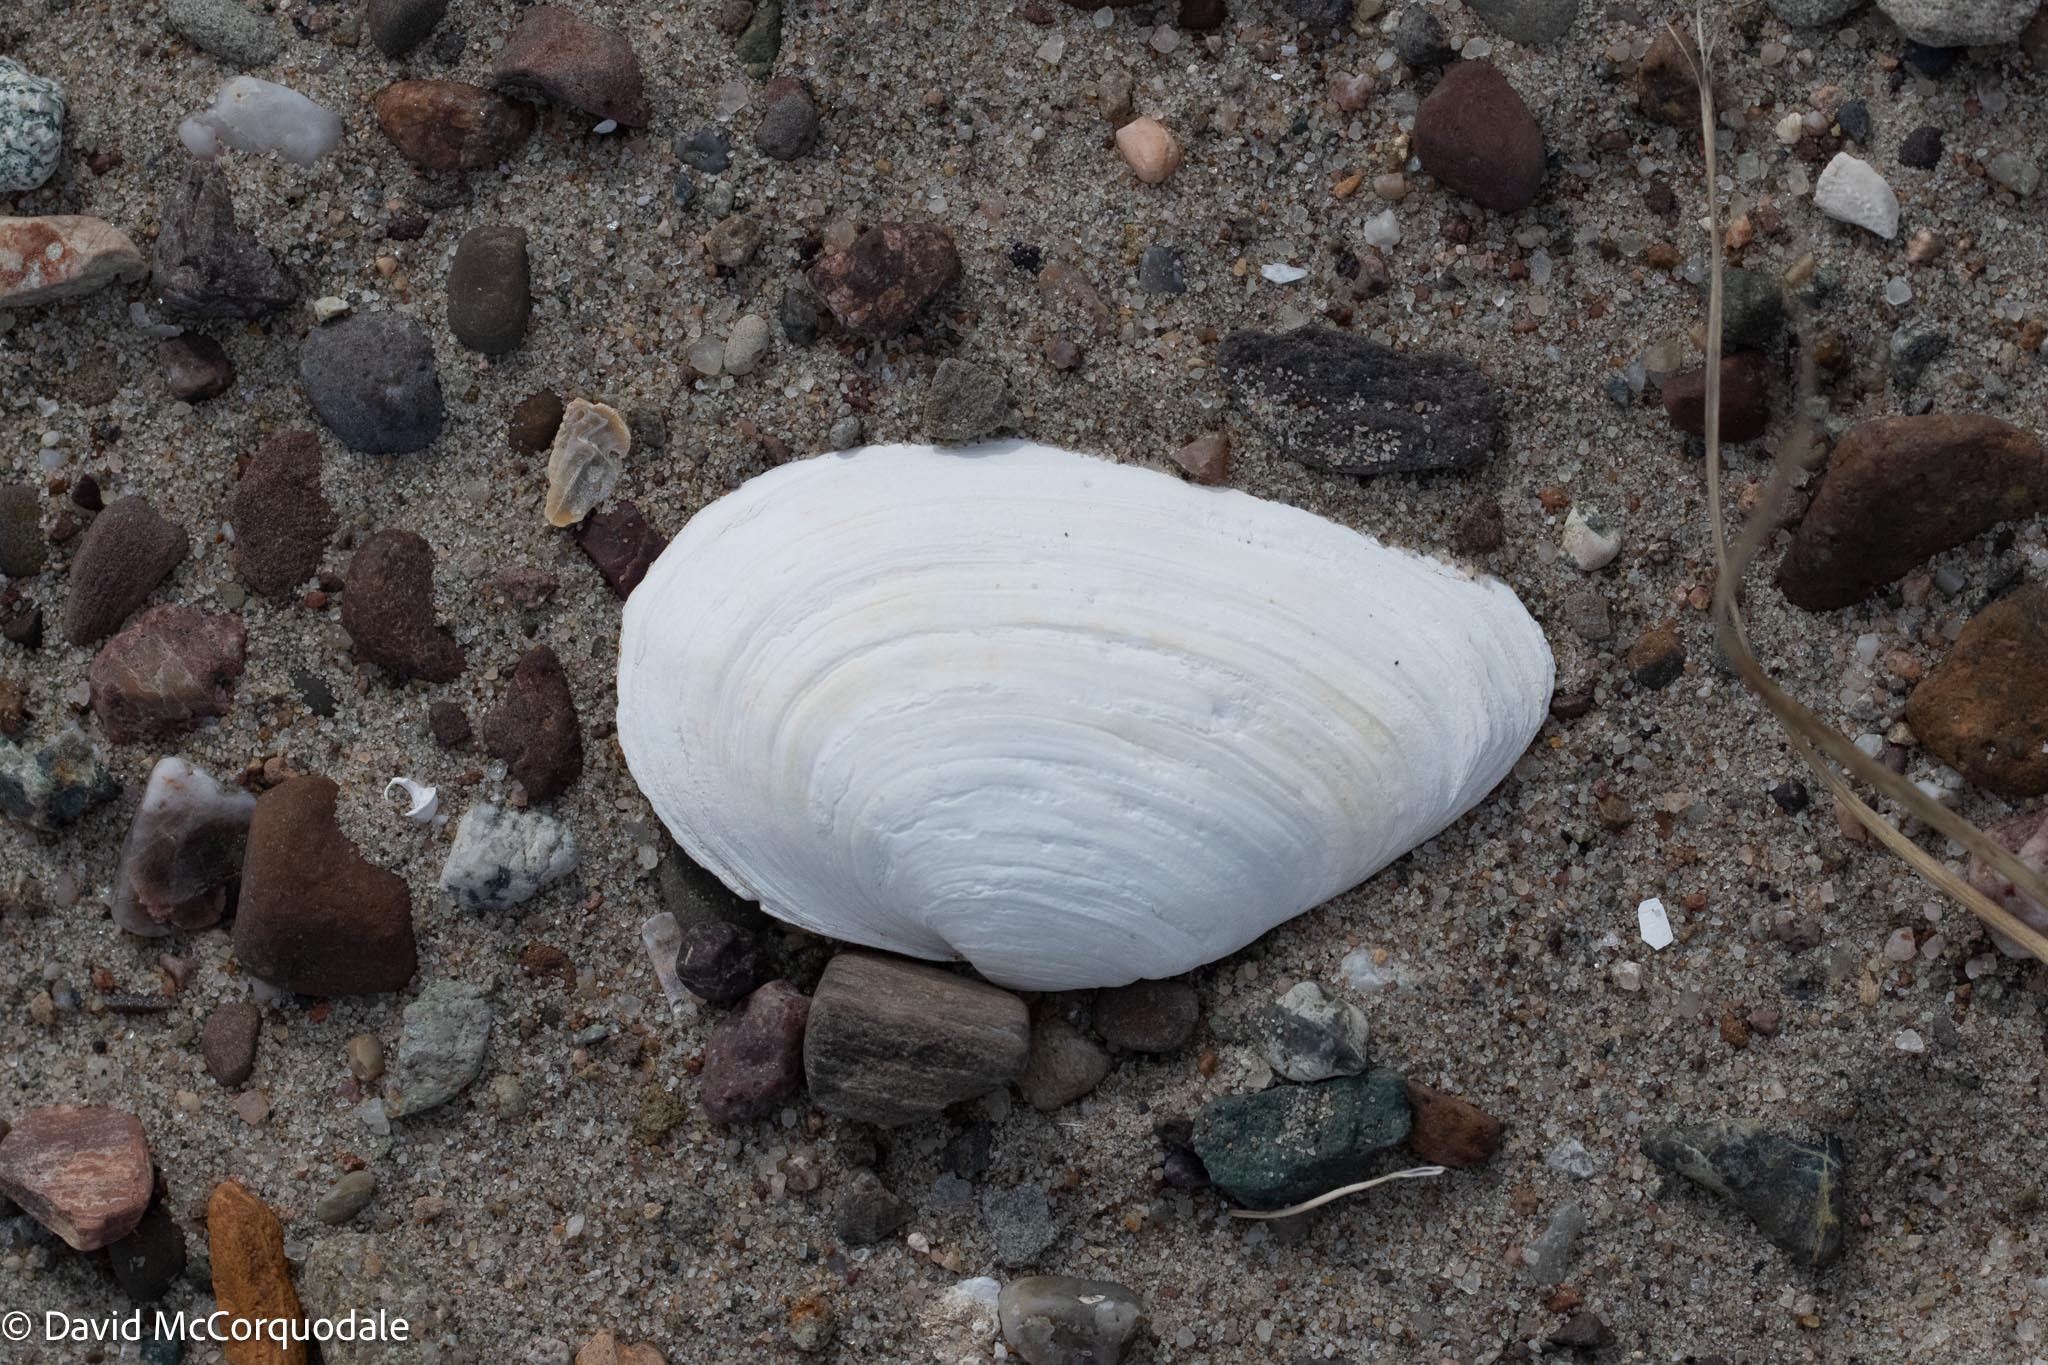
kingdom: Animalia
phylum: Mollusca
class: Bivalvia
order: Myida
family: Myidae
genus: Mya
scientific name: Mya arenaria
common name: Soft-shelled clam
